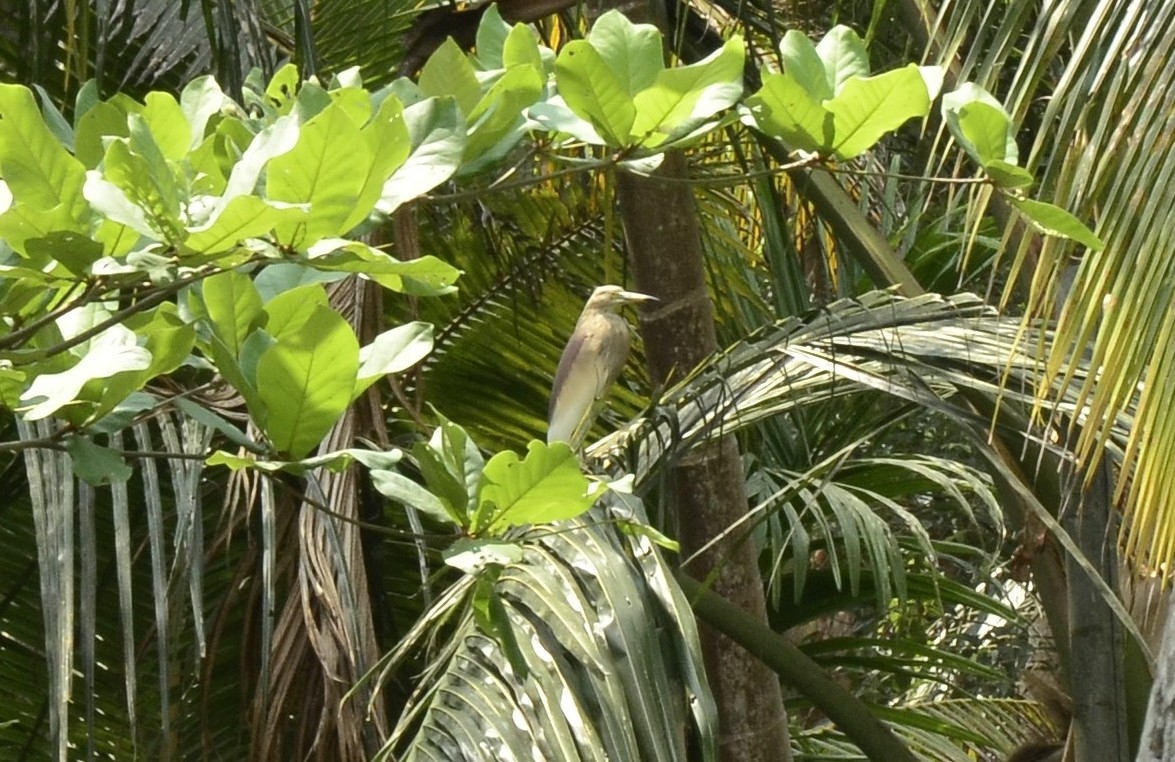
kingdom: Animalia
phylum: Chordata
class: Aves
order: Pelecaniformes
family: Ardeidae
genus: Ardeola
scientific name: Ardeola grayii
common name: Indian pond heron
